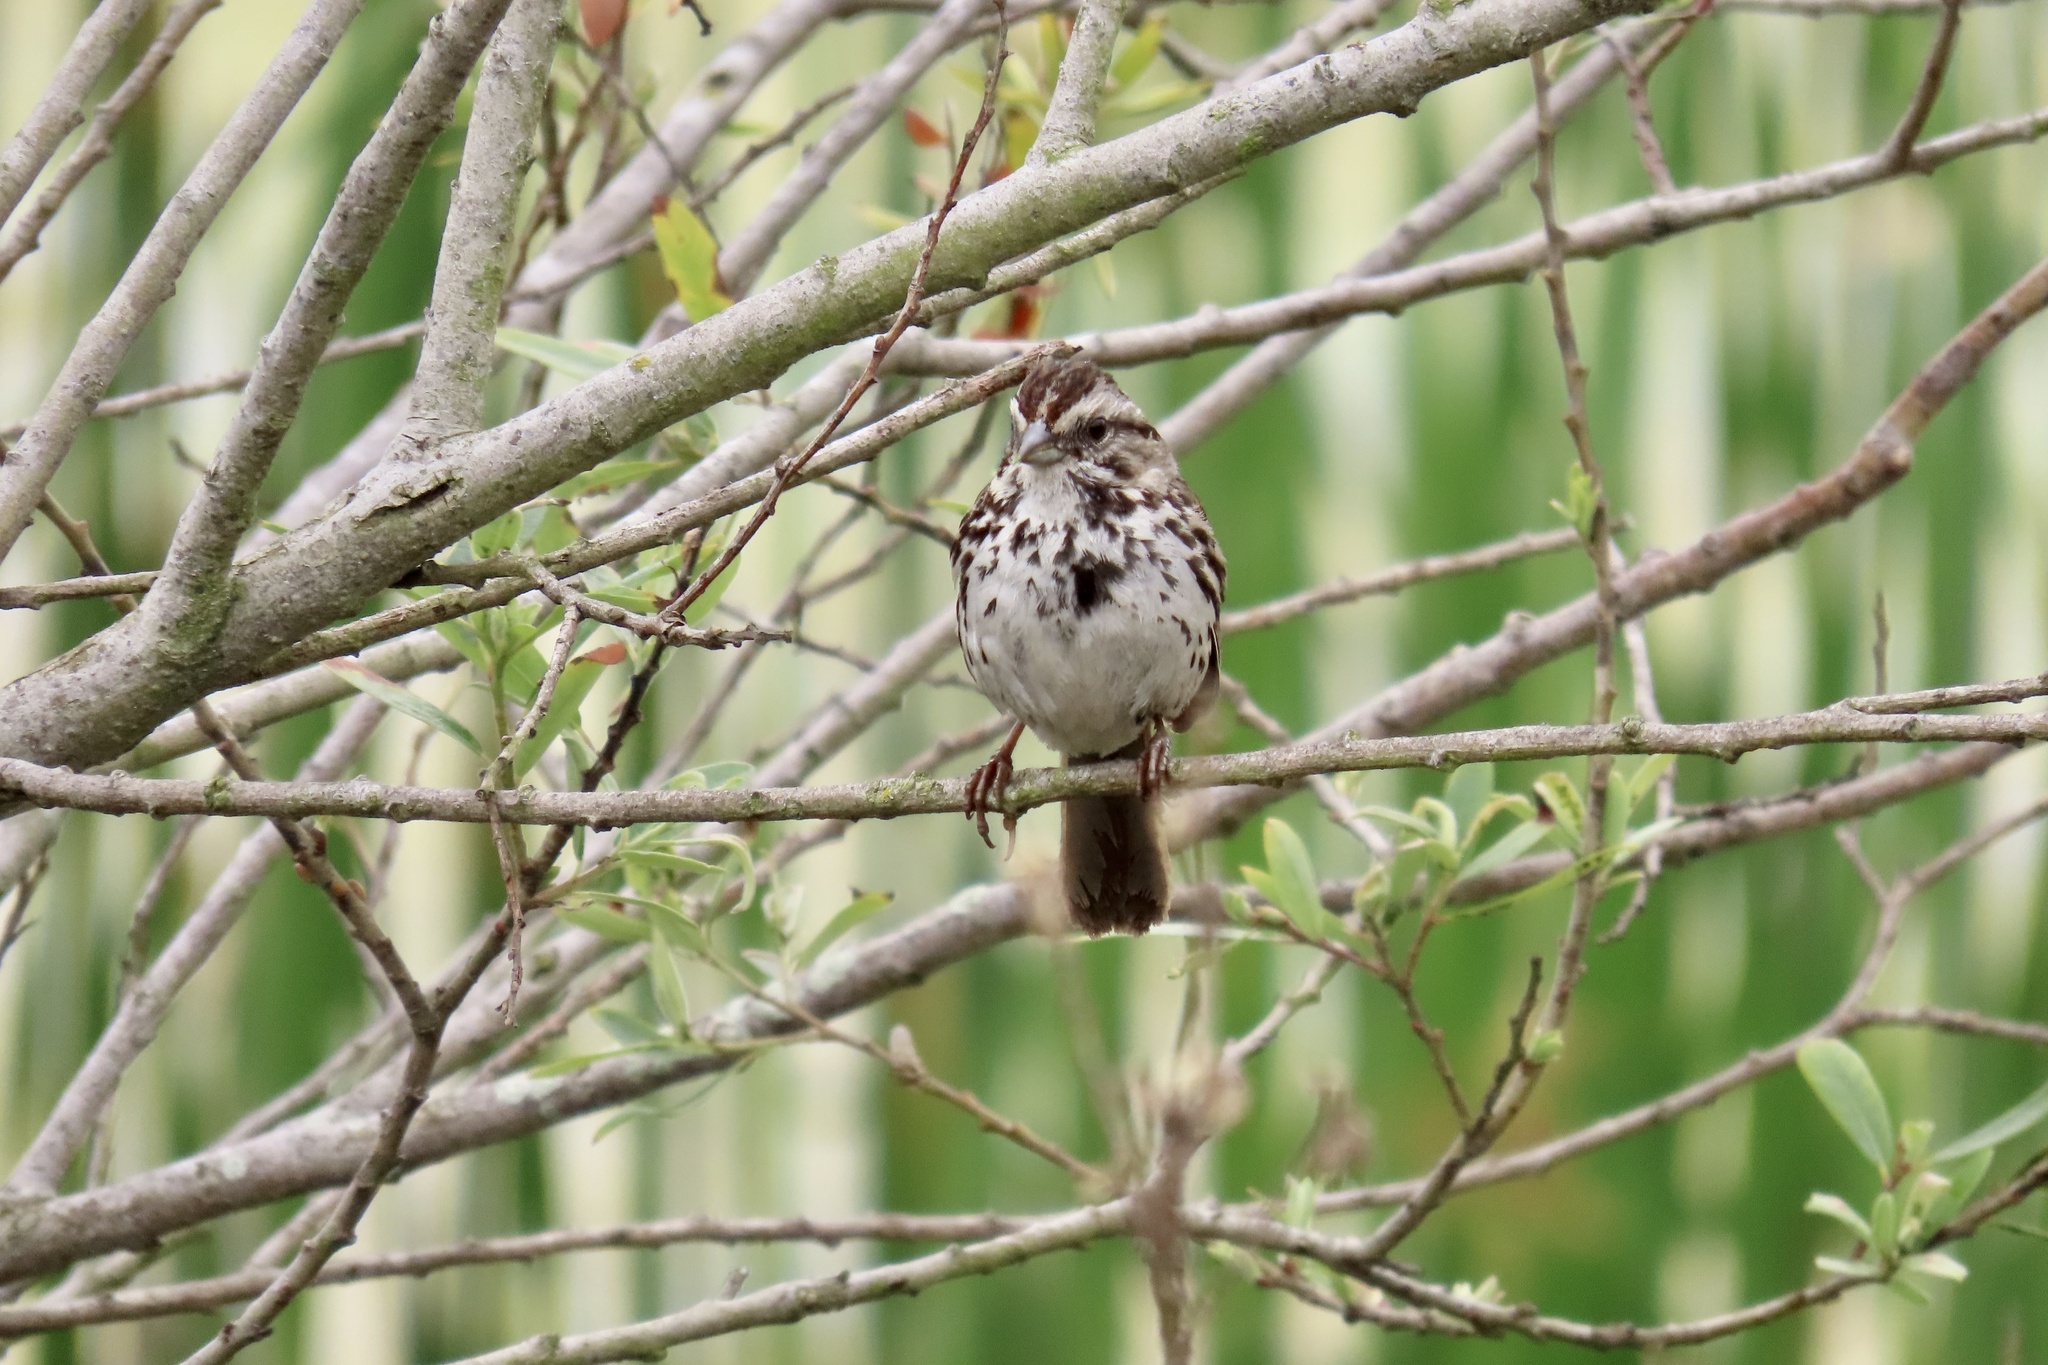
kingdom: Animalia
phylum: Chordata
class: Aves
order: Passeriformes
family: Passerellidae
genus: Melospiza
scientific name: Melospiza melodia
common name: Song sparrow
